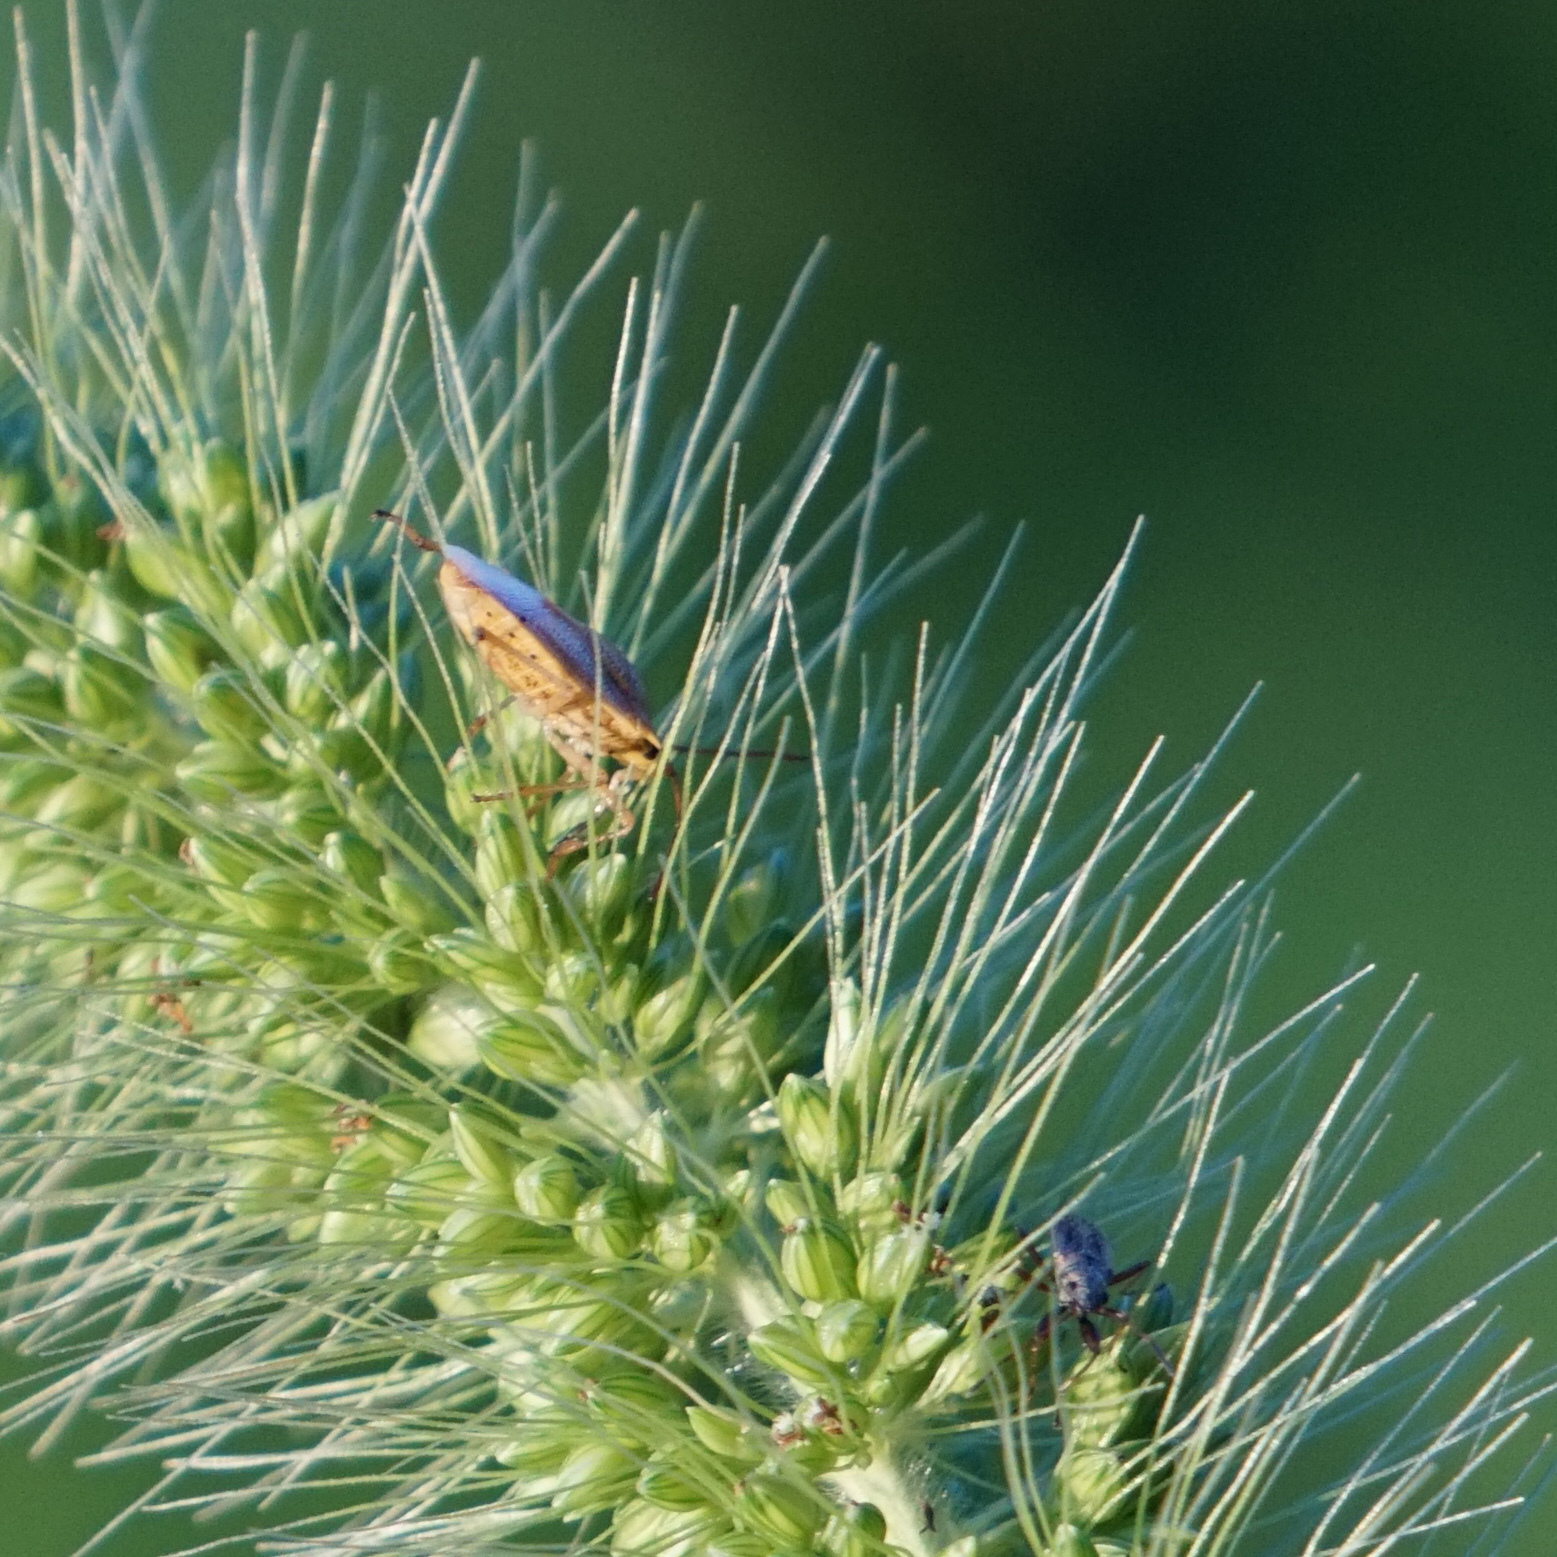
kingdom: Animalia
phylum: Arthropoda
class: Insecta
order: Hemiptera
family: Pentatomidae
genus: Oebalus
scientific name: Oebalus pugnax
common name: Rice stink bug
